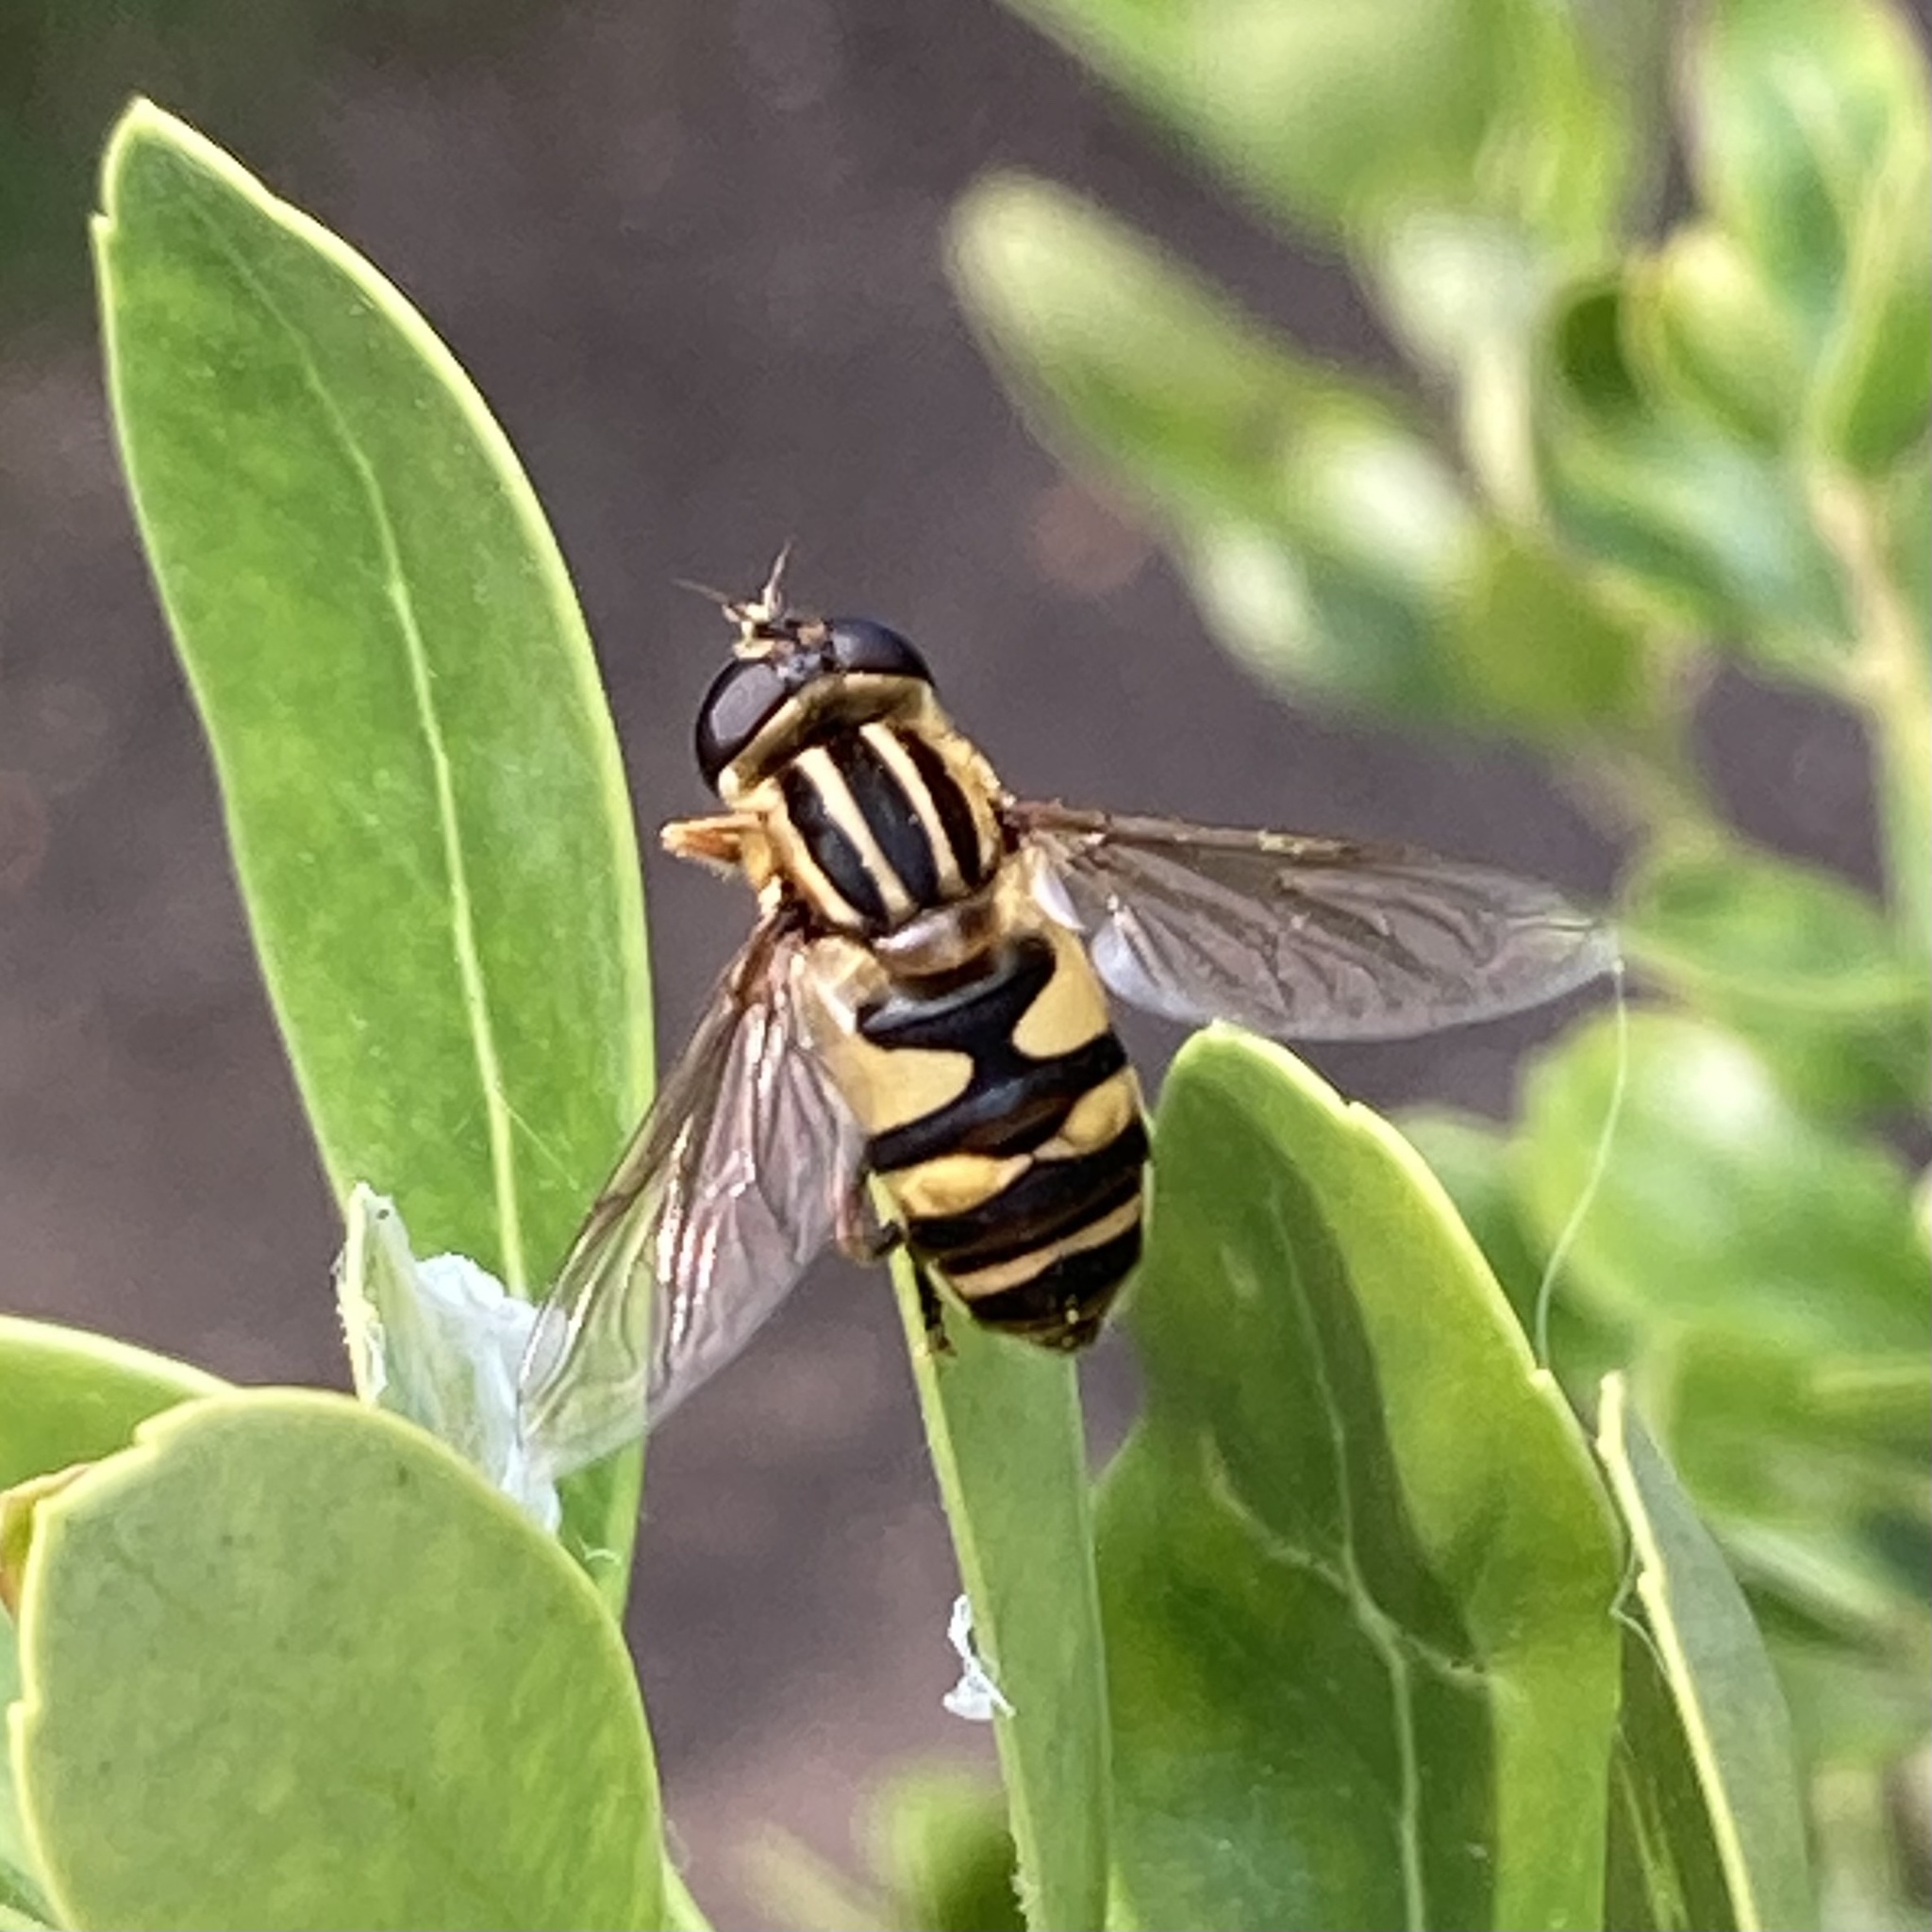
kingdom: Animalia
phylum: Arthropoda
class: Insecta
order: Diptera
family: Syrphidae
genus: Helophilus
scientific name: Helophilus fasciatus
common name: Narrow-headed marsh fly
